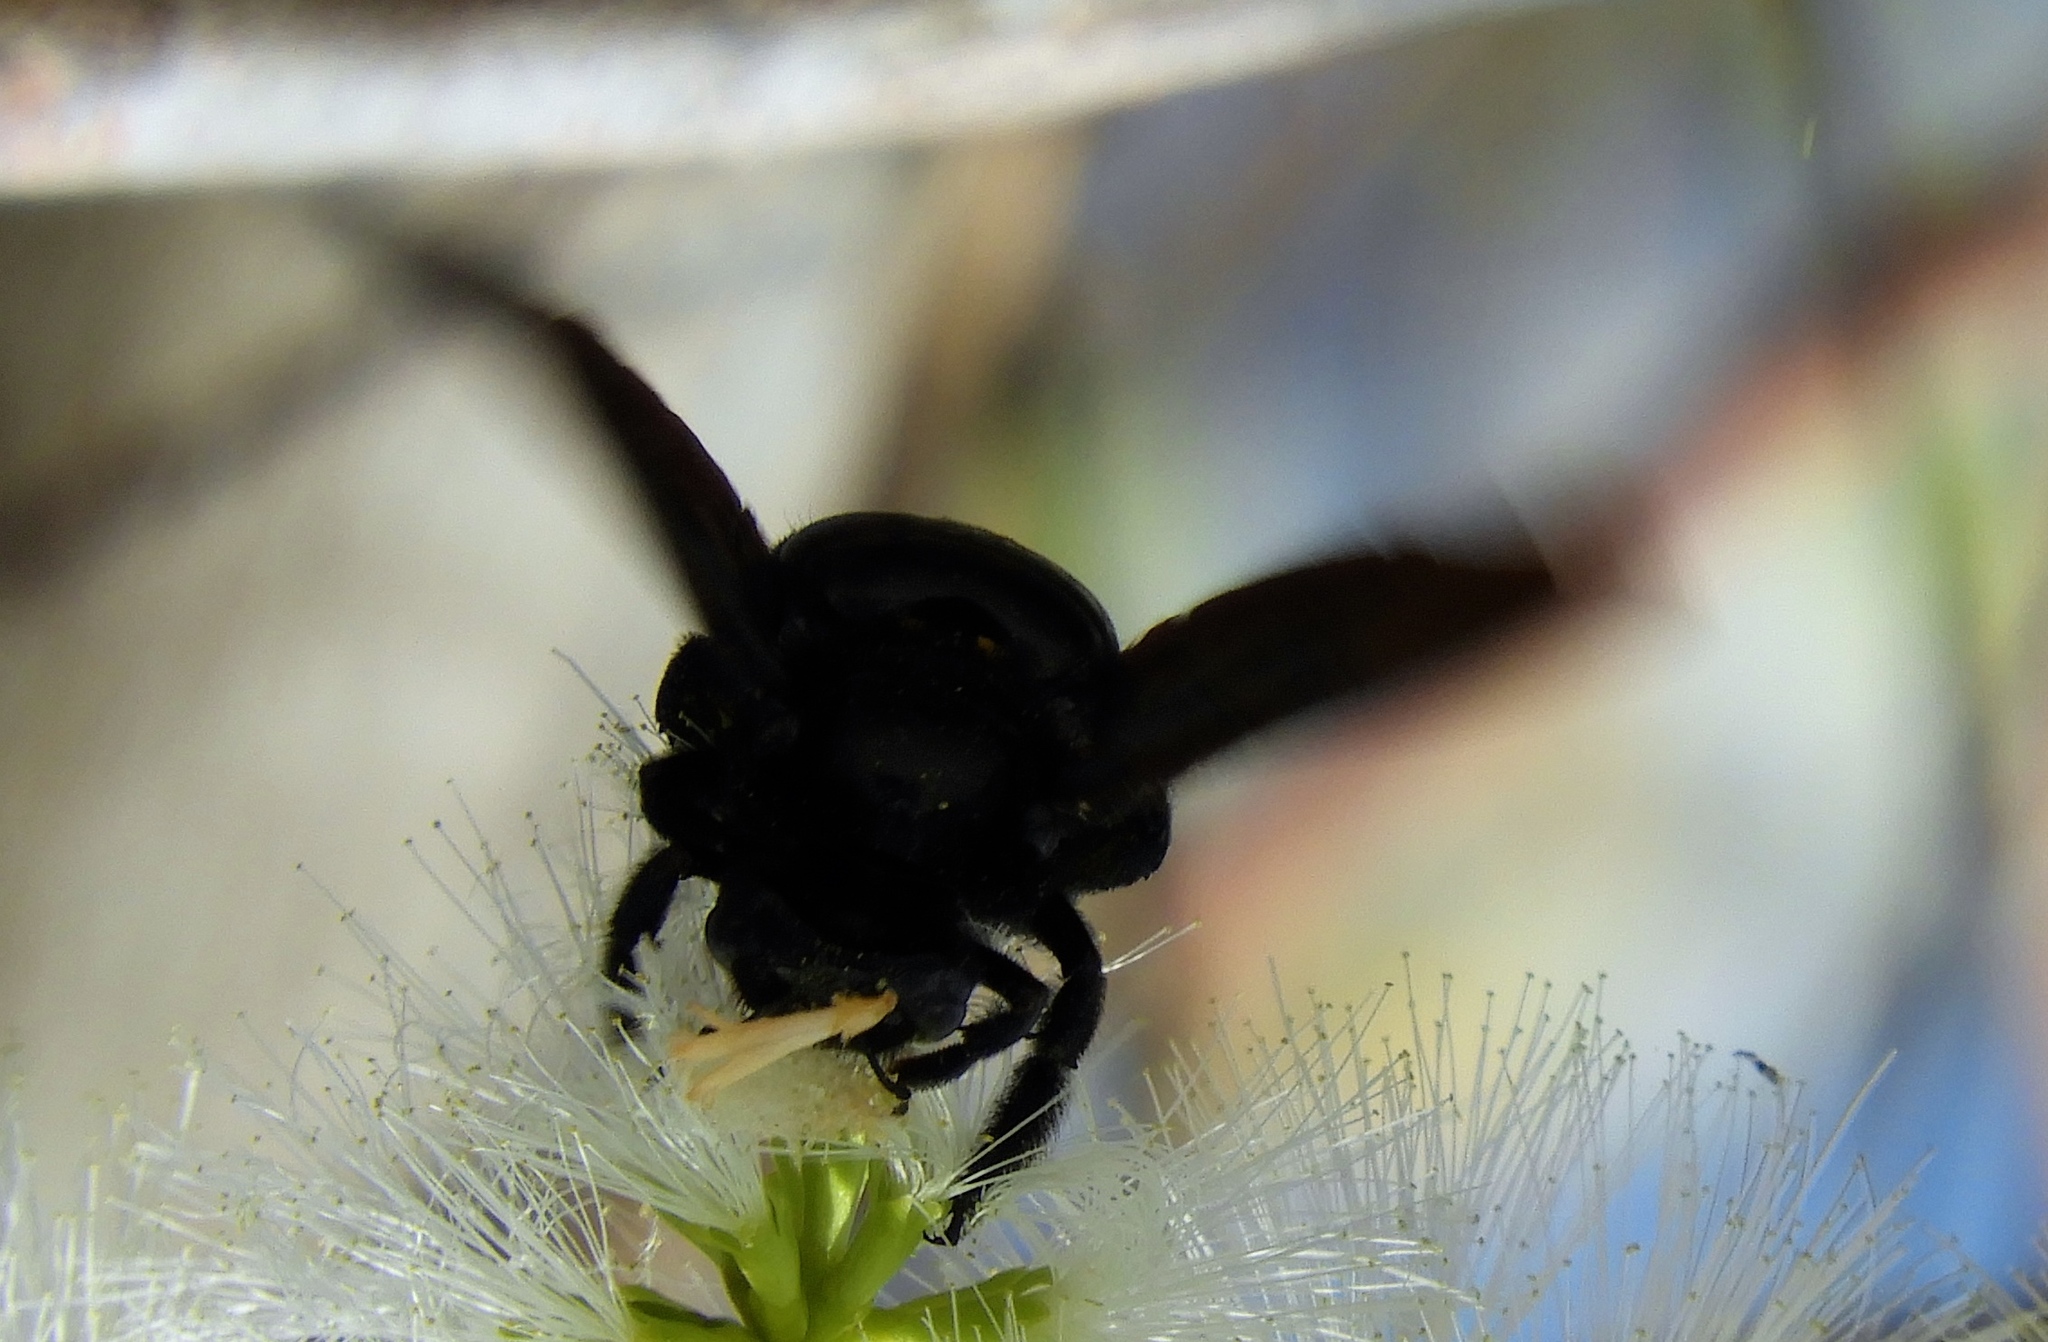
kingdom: Animalia
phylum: Arthropoda
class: Insecta
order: Hymenoptera
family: Apidae
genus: Xylocopa
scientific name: Xylocopa fimbriata
